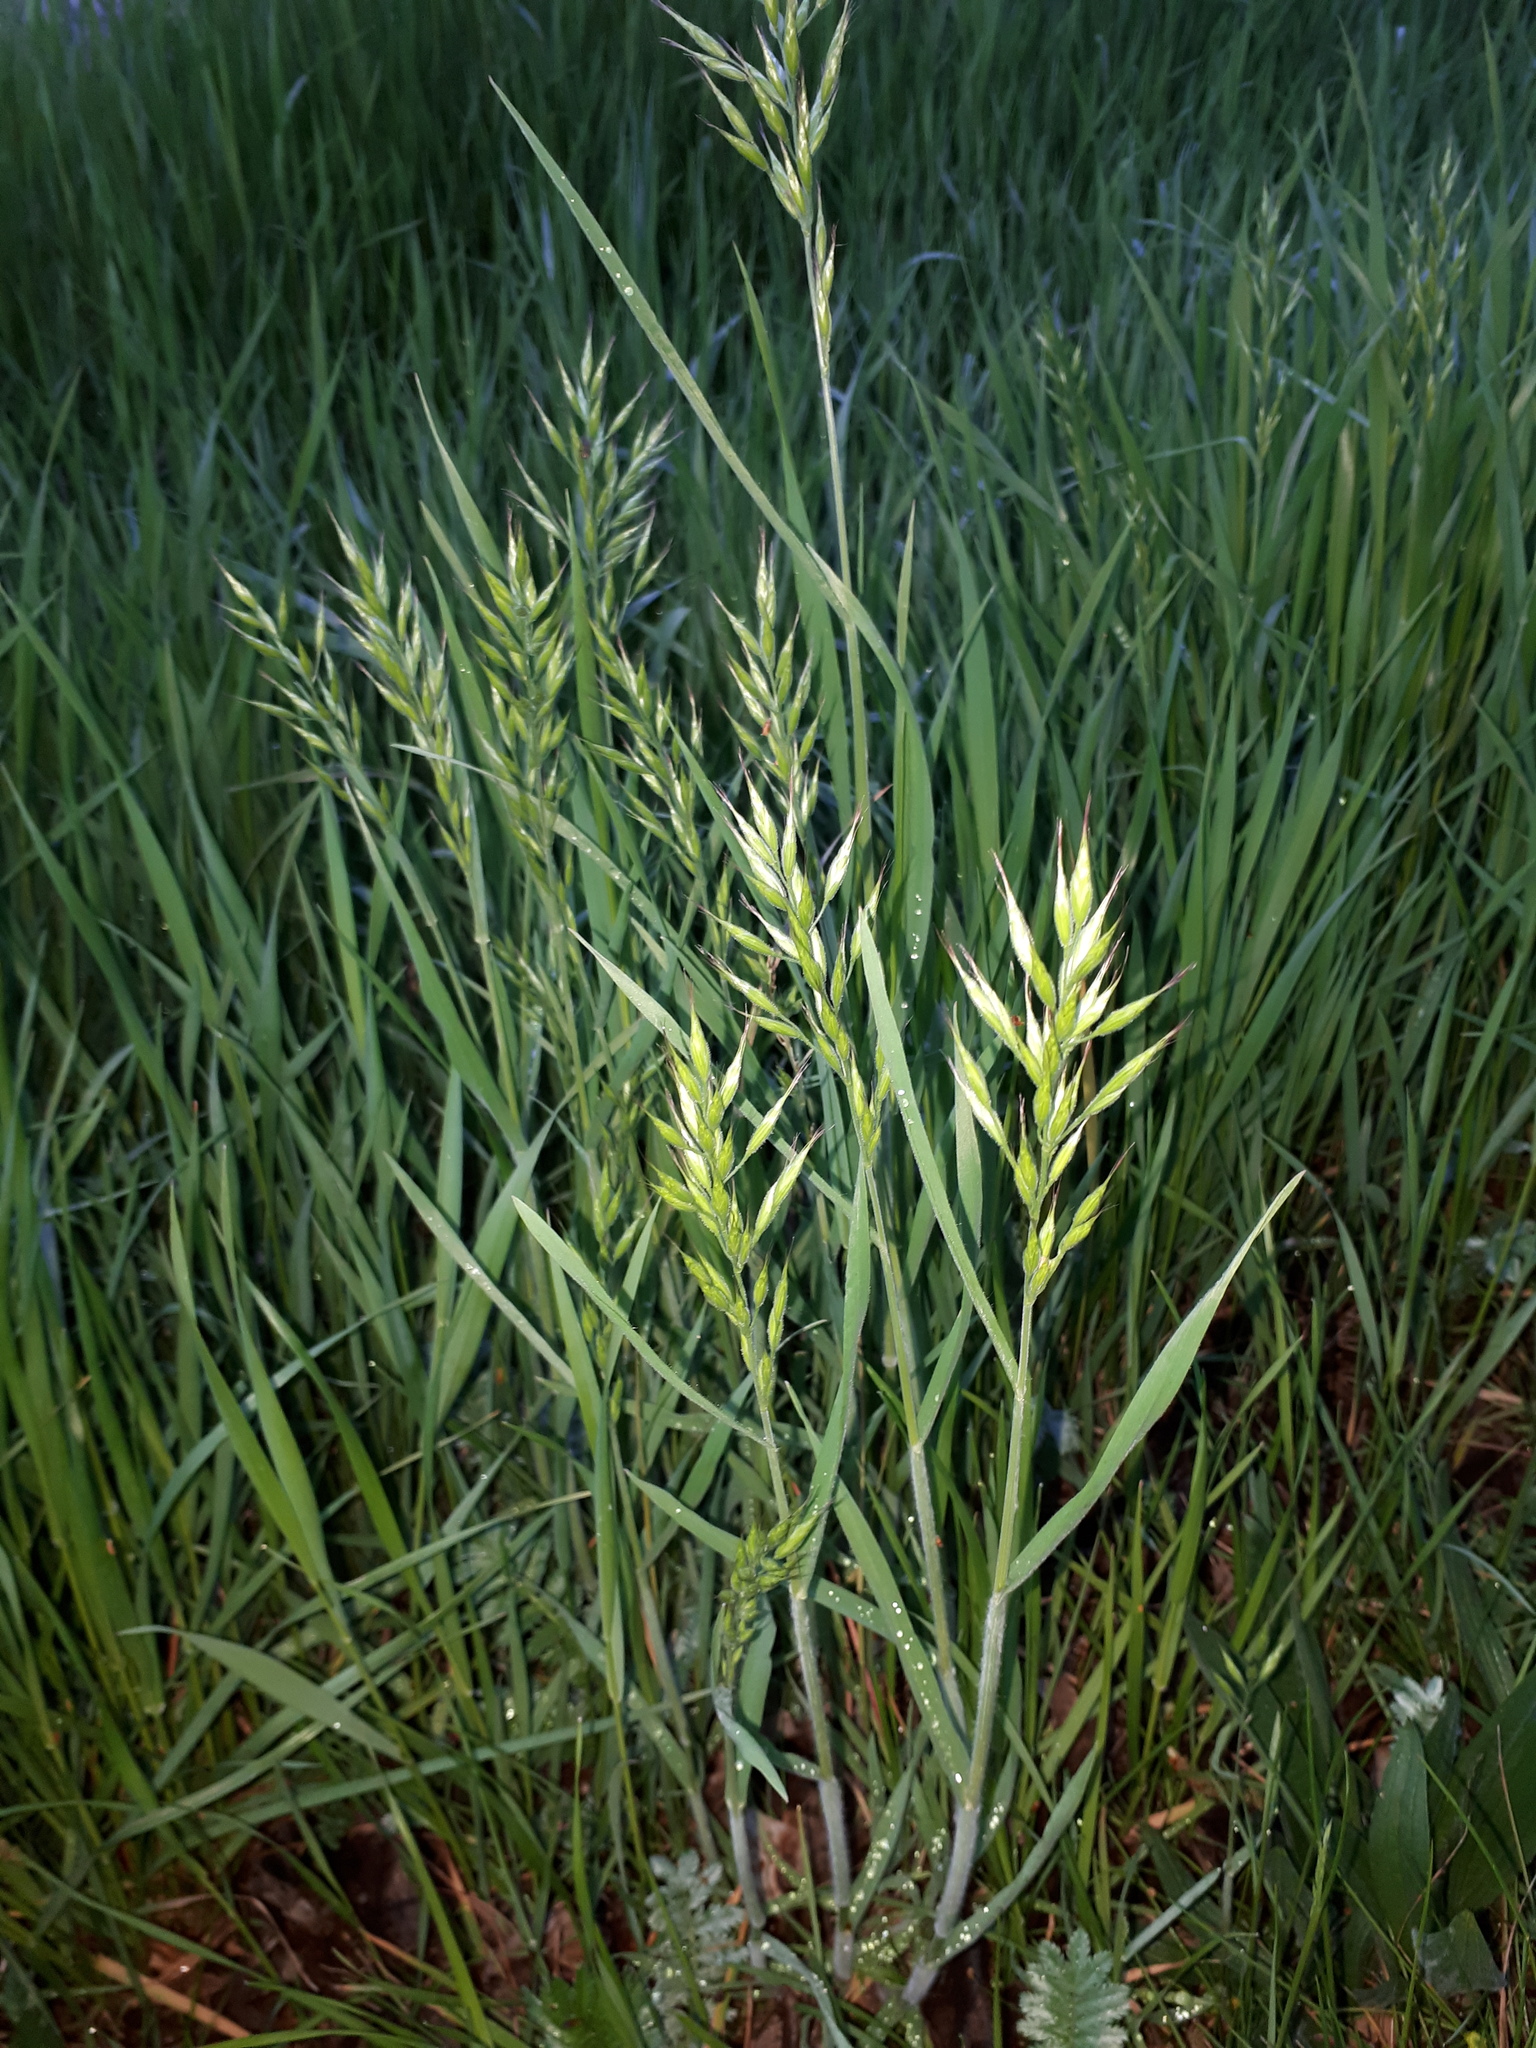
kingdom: Plantae
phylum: Tracheophyta
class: Liliopsida
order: Poales
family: Poaceae
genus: Bromus
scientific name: Bromus hordeaceus
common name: Soft brome
